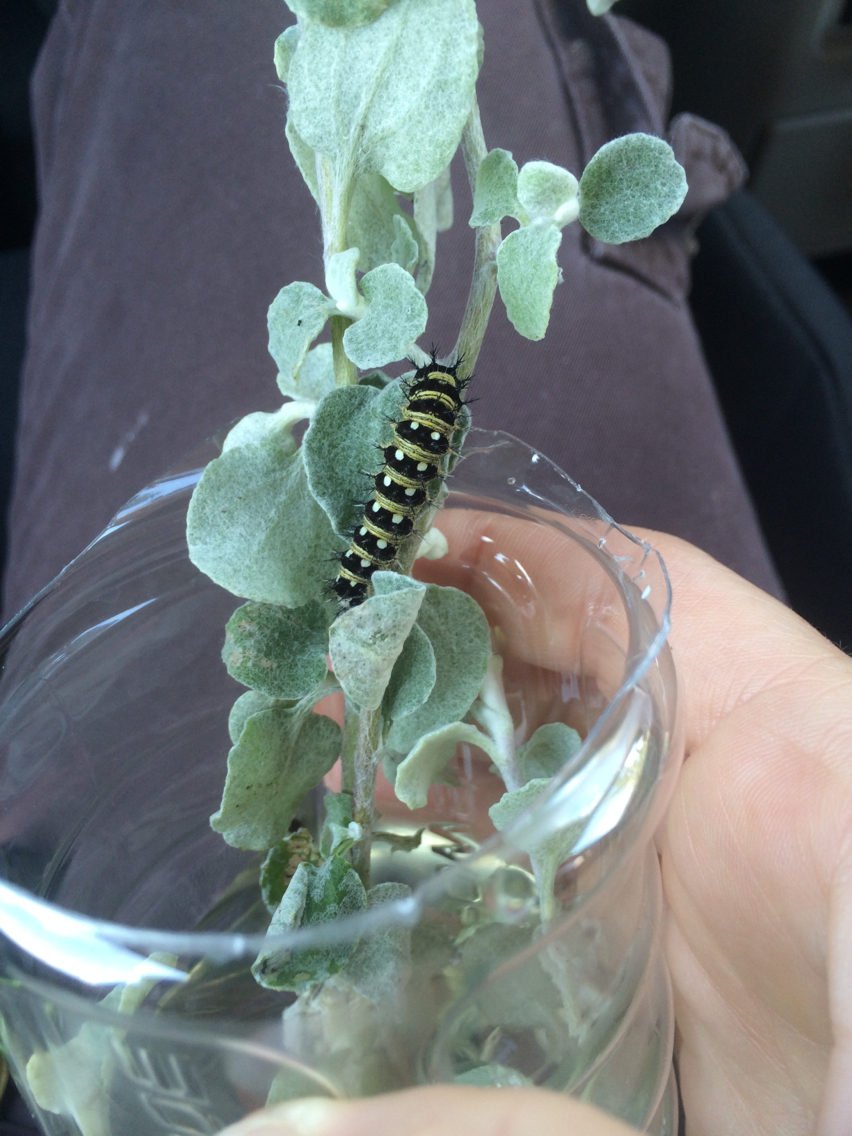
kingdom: Animalia
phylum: Arthropoda
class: Insecta
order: Lepidoptera
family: Nymphalidae
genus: Vanessa
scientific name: Vanessa virginiensis
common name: American lady
